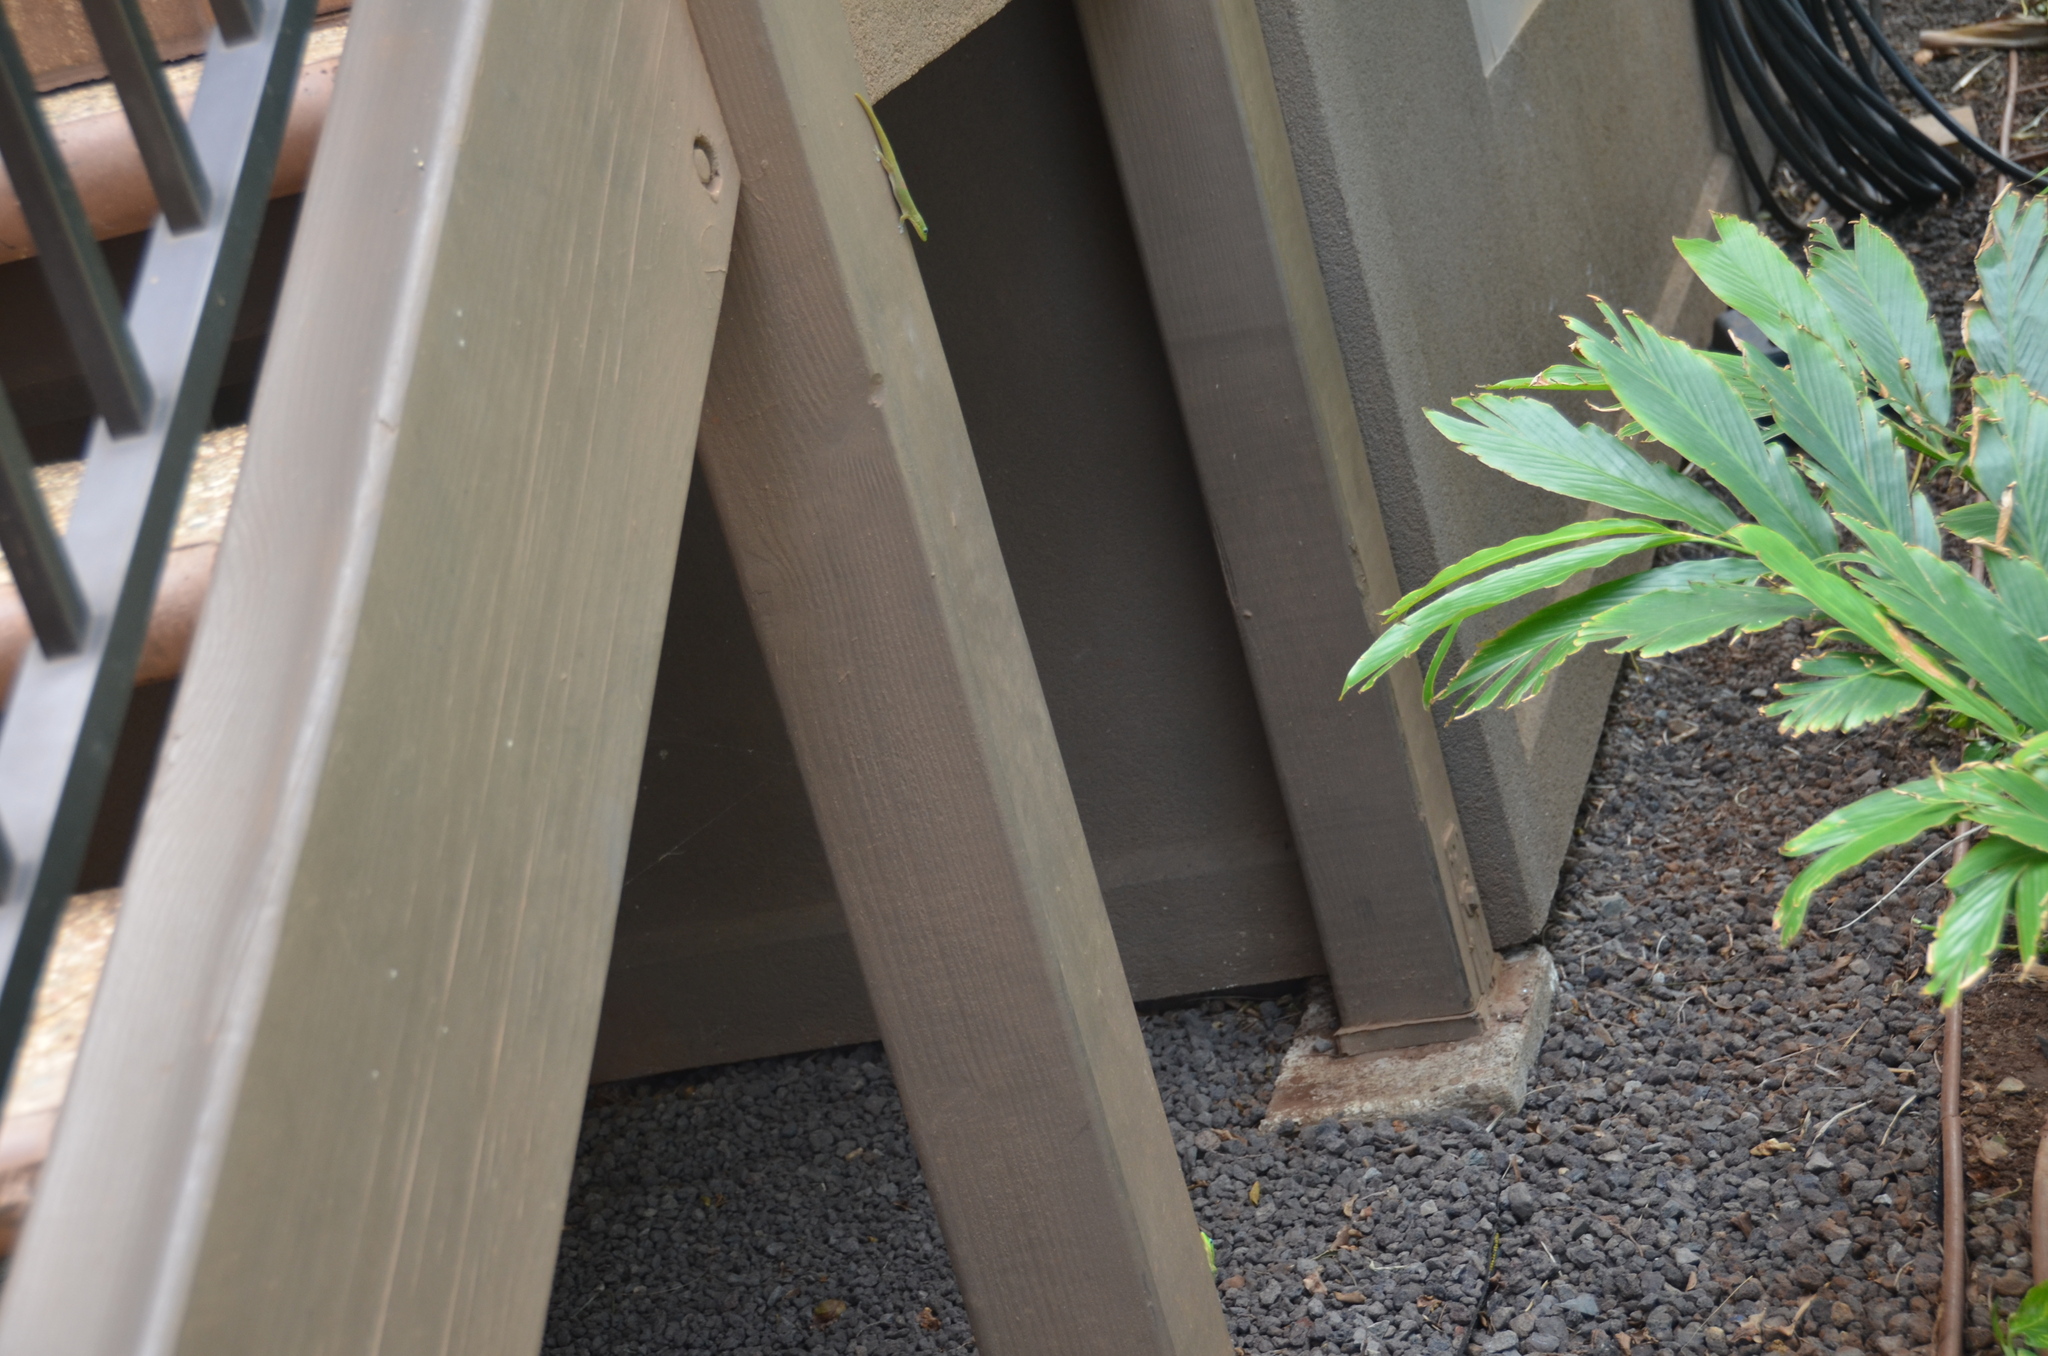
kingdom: Animalia
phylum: Chordata
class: Squamata
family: Gekkonidae
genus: Phelsuma
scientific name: Phelsuma laticauda
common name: Gold dust day gecko
